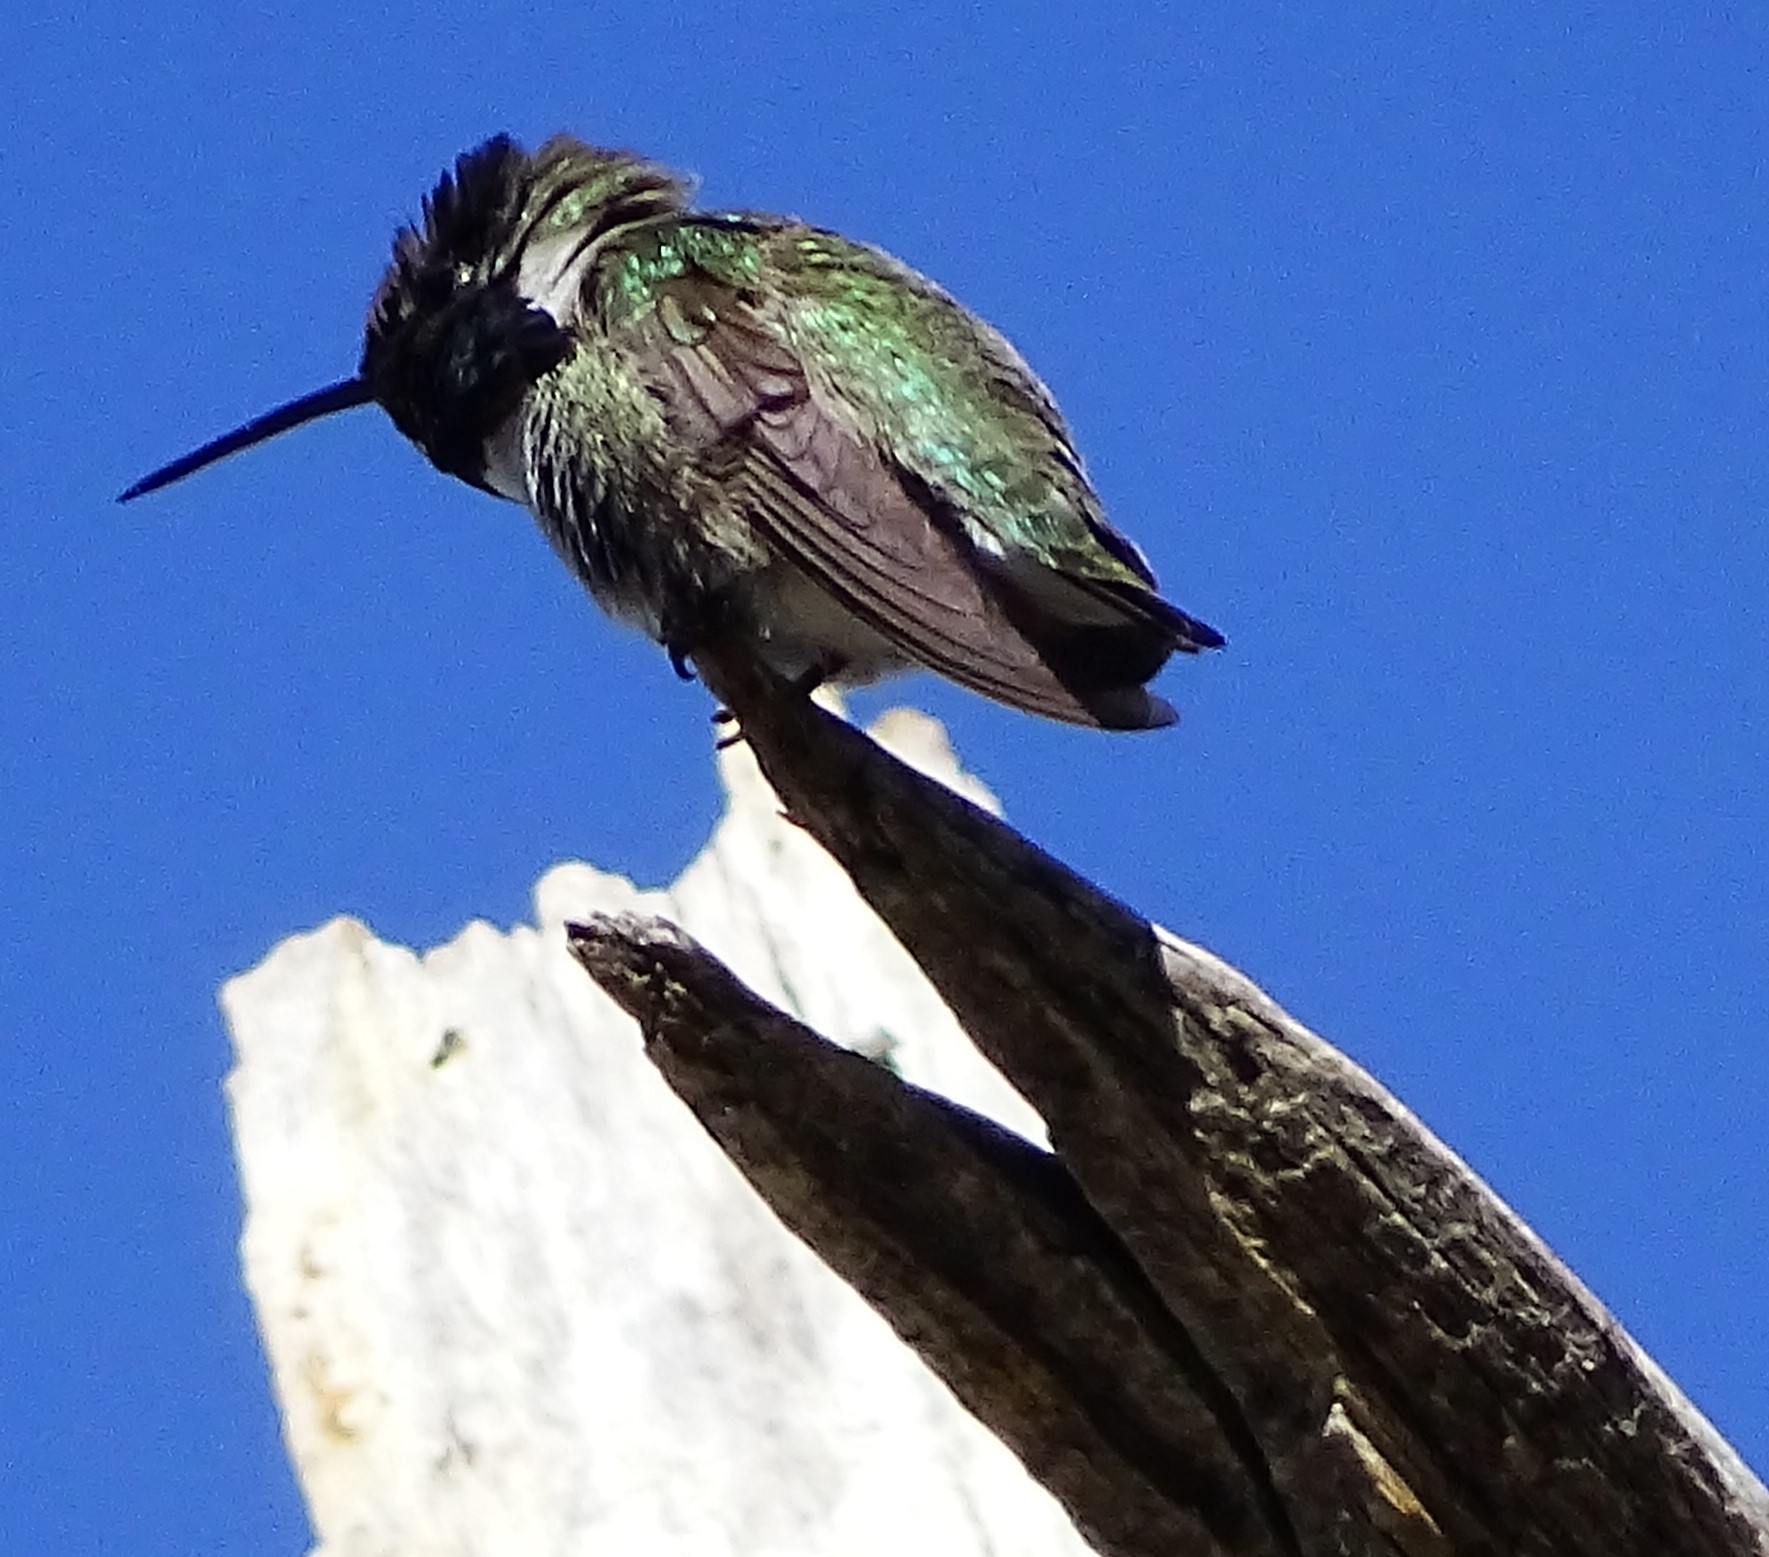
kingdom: Animalia
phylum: Chordata
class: Aves
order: Apodiformes
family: Trochilidae
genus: Calypte
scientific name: Calypte costae
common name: Costa's hummingbird
